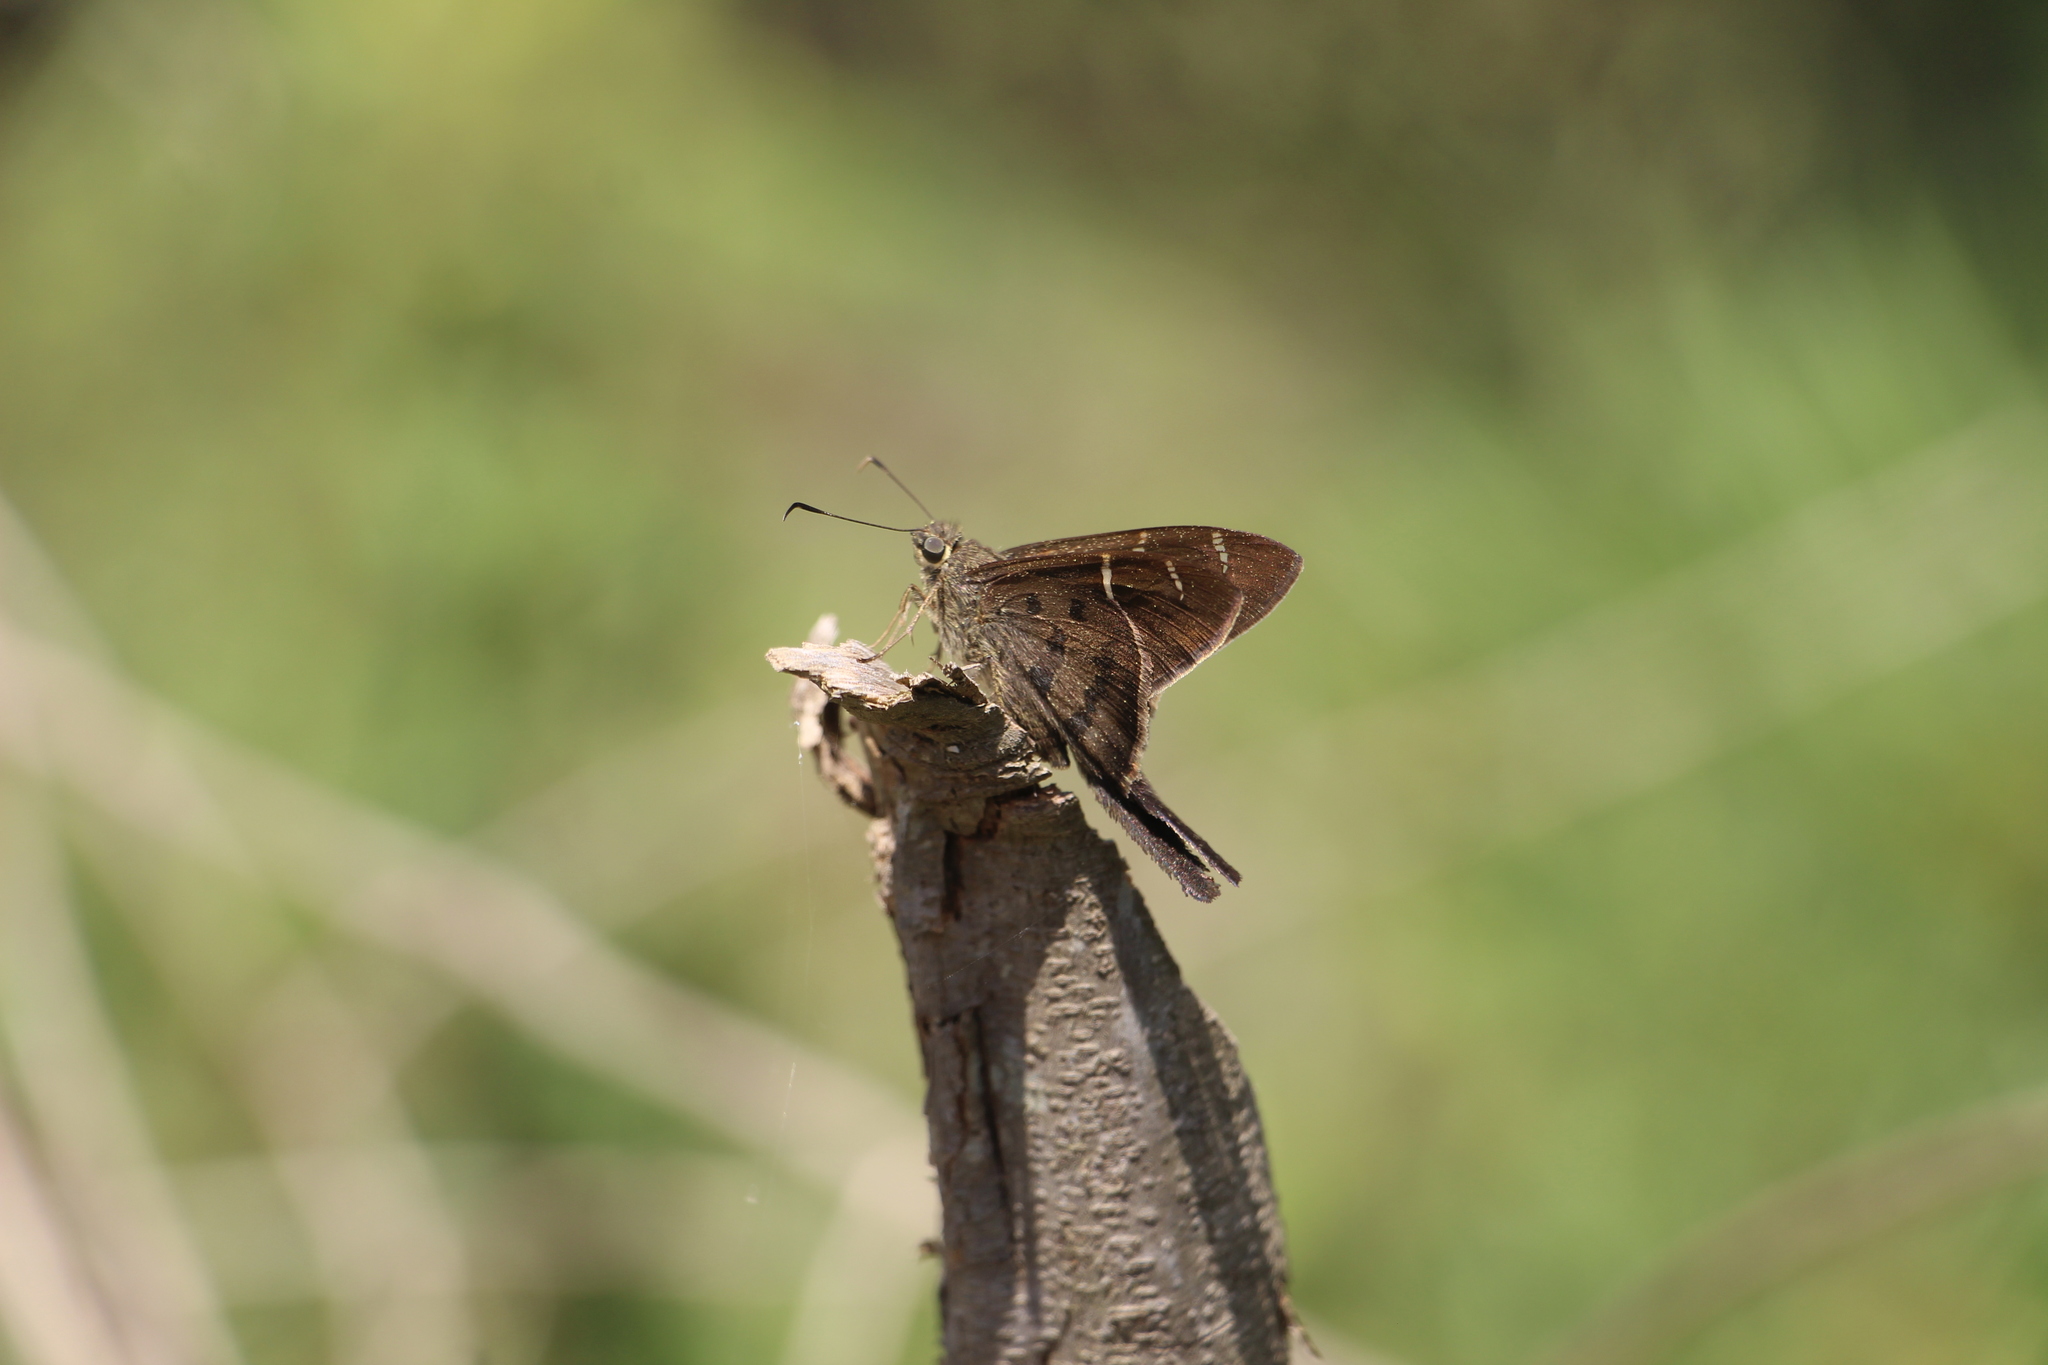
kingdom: Animalia
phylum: Arthropoda
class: Insecta
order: Lepidoptera
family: Hesperiidae
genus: Urbanus
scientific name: Urbanus tanna
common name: Tanna longtail
